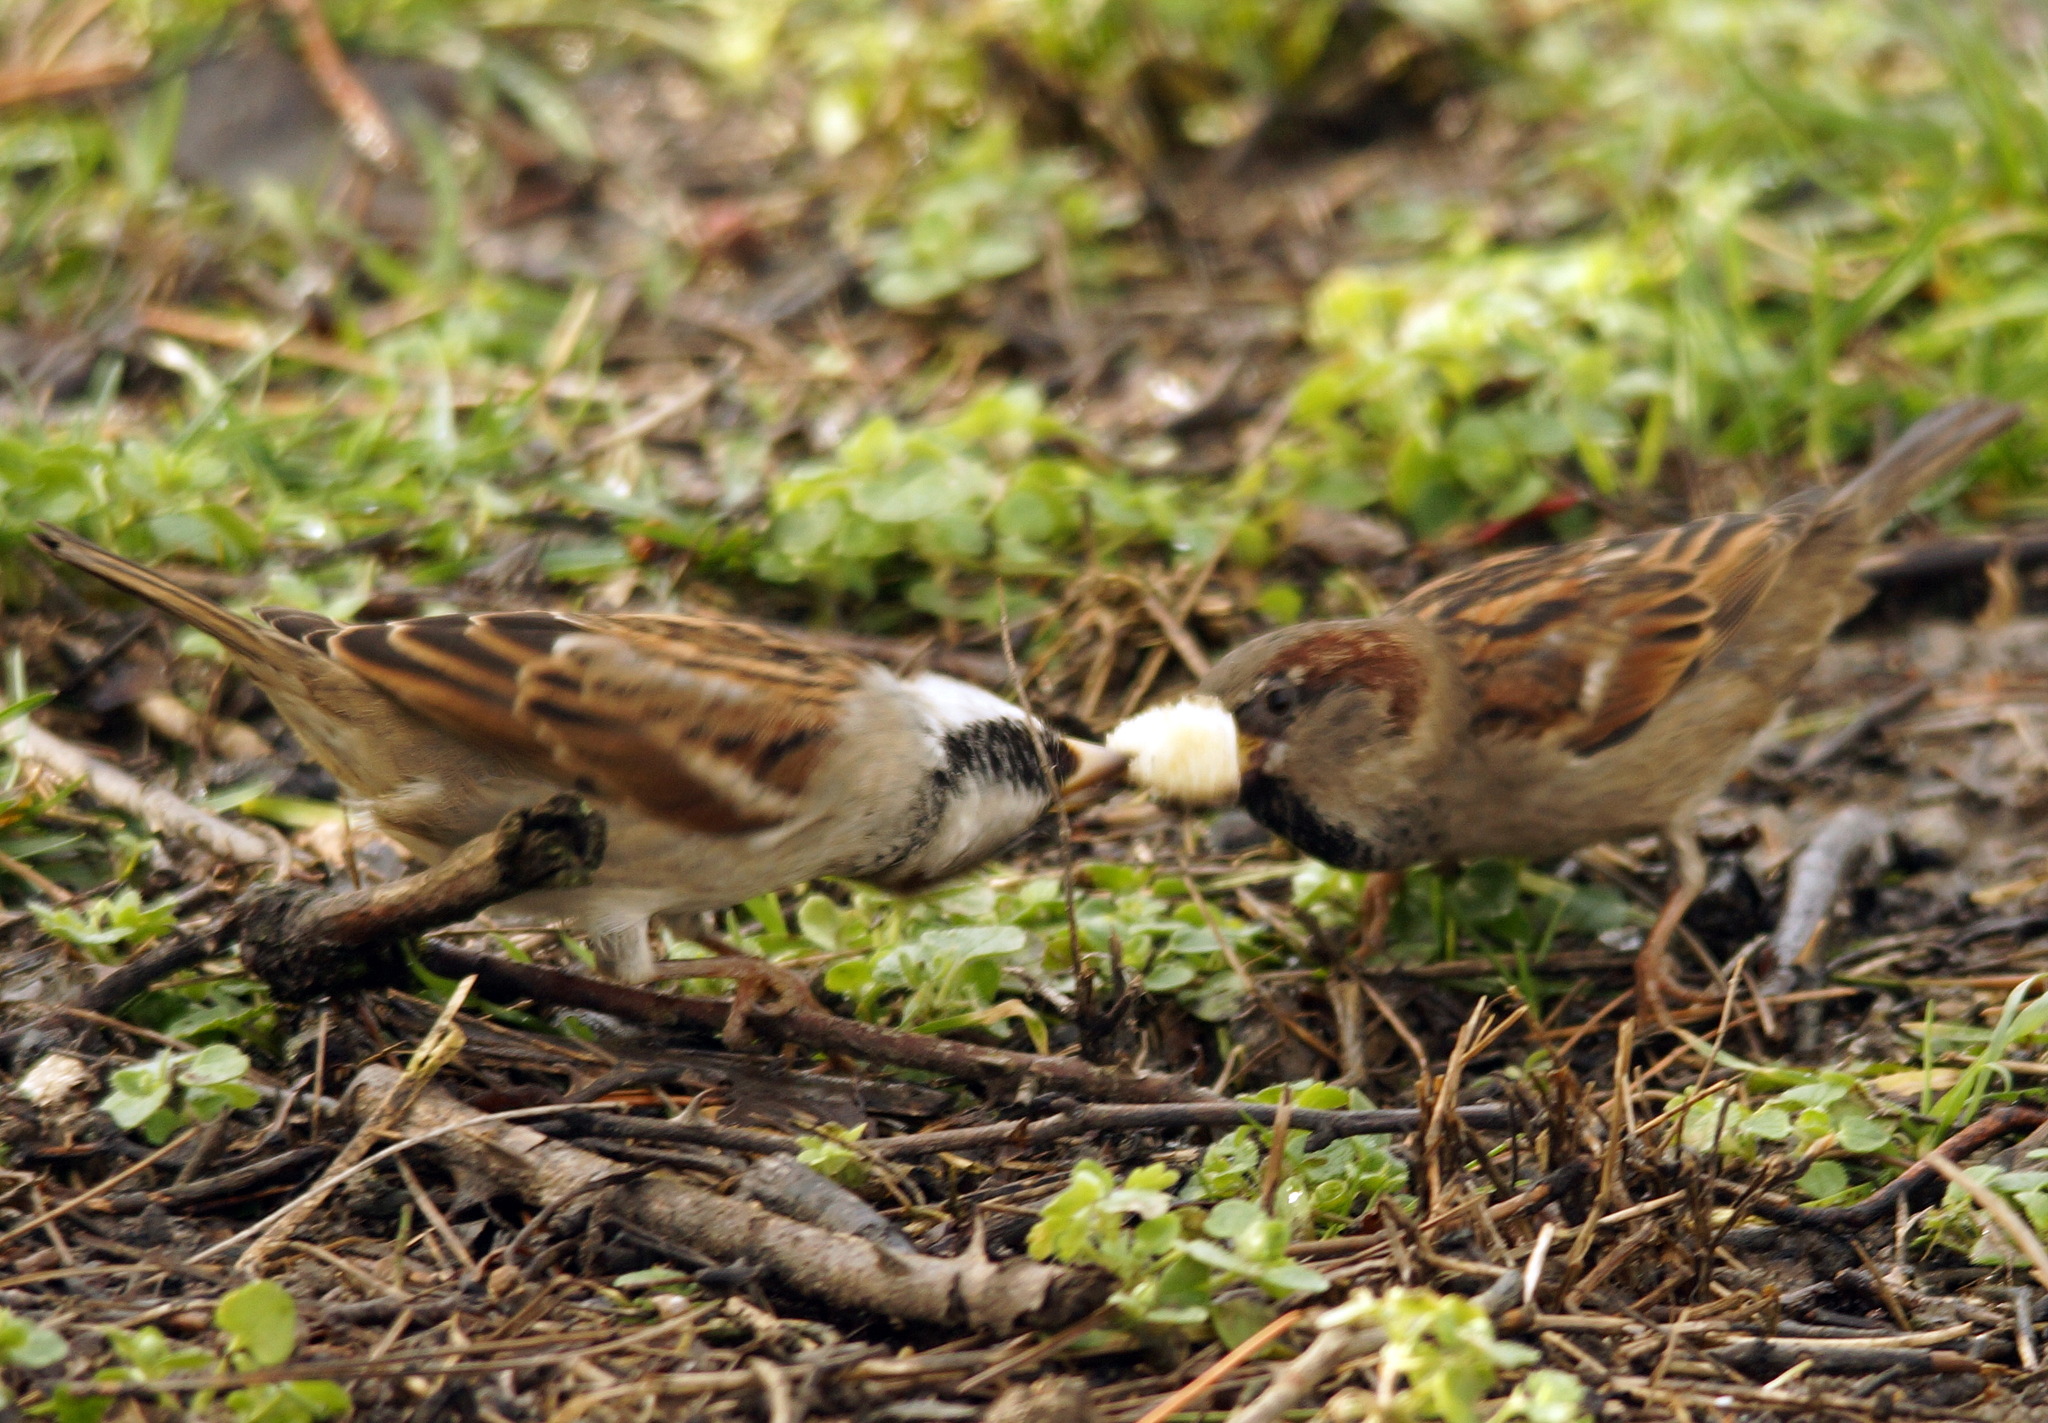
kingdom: Animalia
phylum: Chordata
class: Aves
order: Passeriformes
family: Passeridae
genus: Passer
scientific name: Passer domesticus
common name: House sparrow
